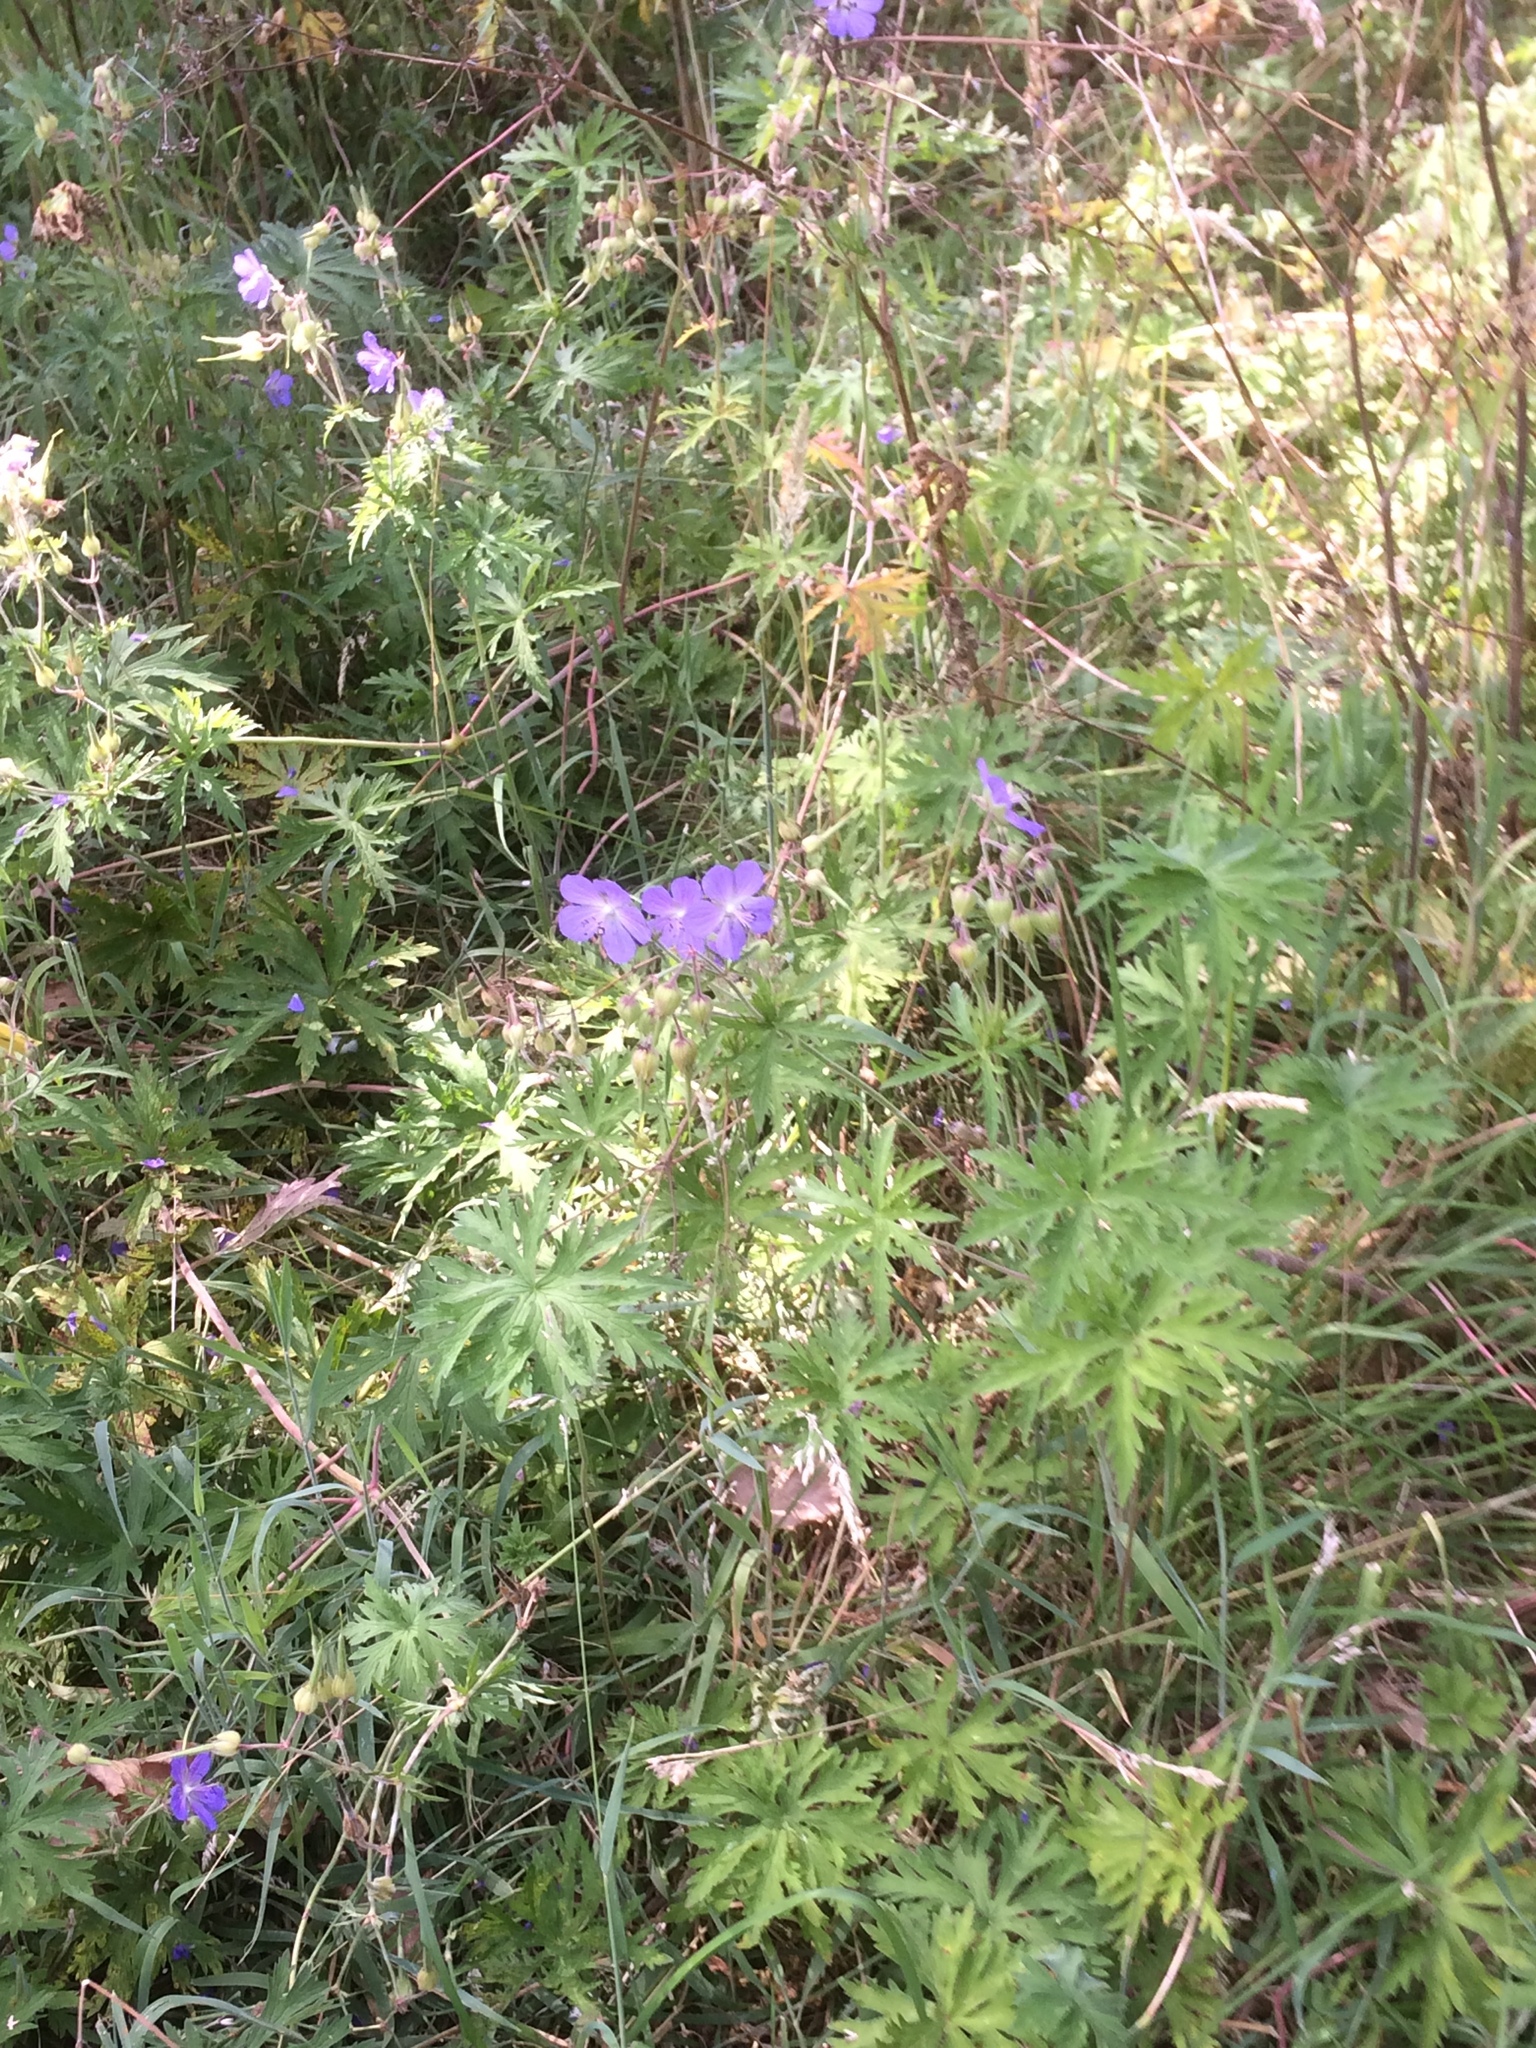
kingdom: Plantae
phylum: Tracheophyta
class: Magnoliopsida
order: Geraniales
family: Geraniaceae
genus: Geranium
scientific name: Geranium pratense
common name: Meadow crane's-bill
